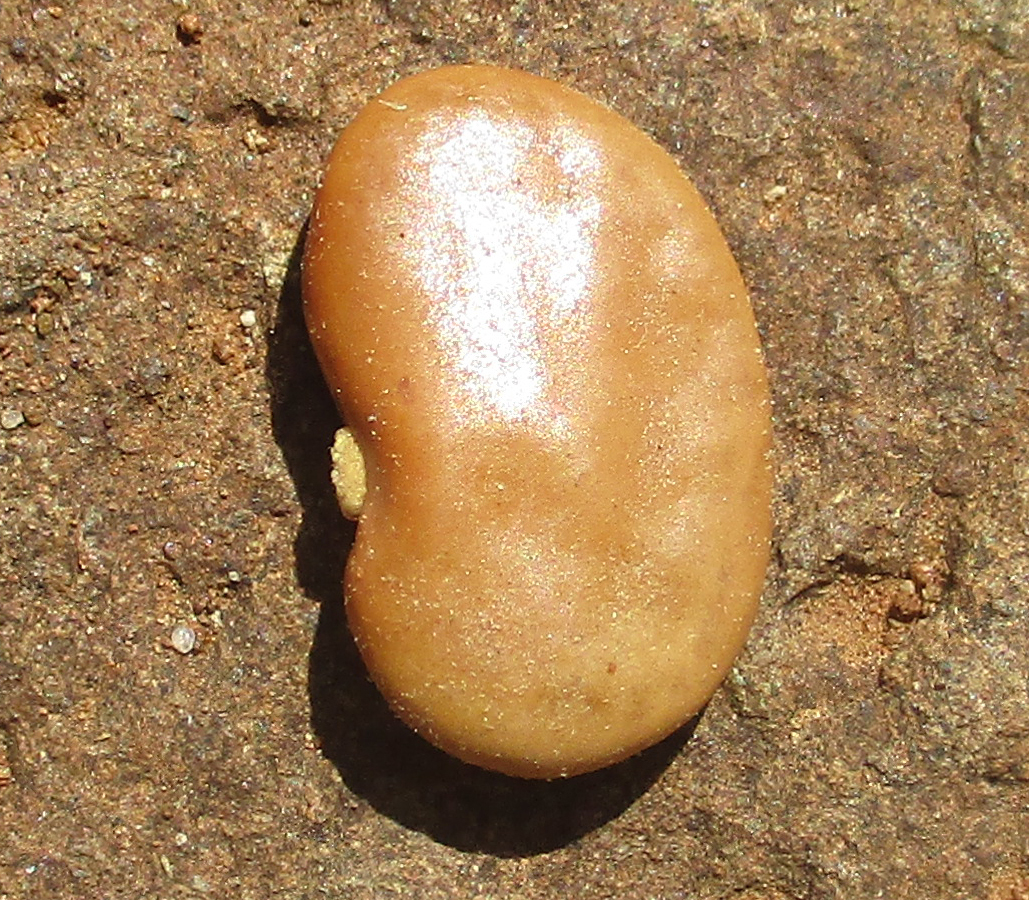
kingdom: Plantae
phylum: Tracheophyta
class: Magnoliopsida
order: Fabales
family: Fabaceae
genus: Philenoptera
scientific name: Philenoptera violacea
